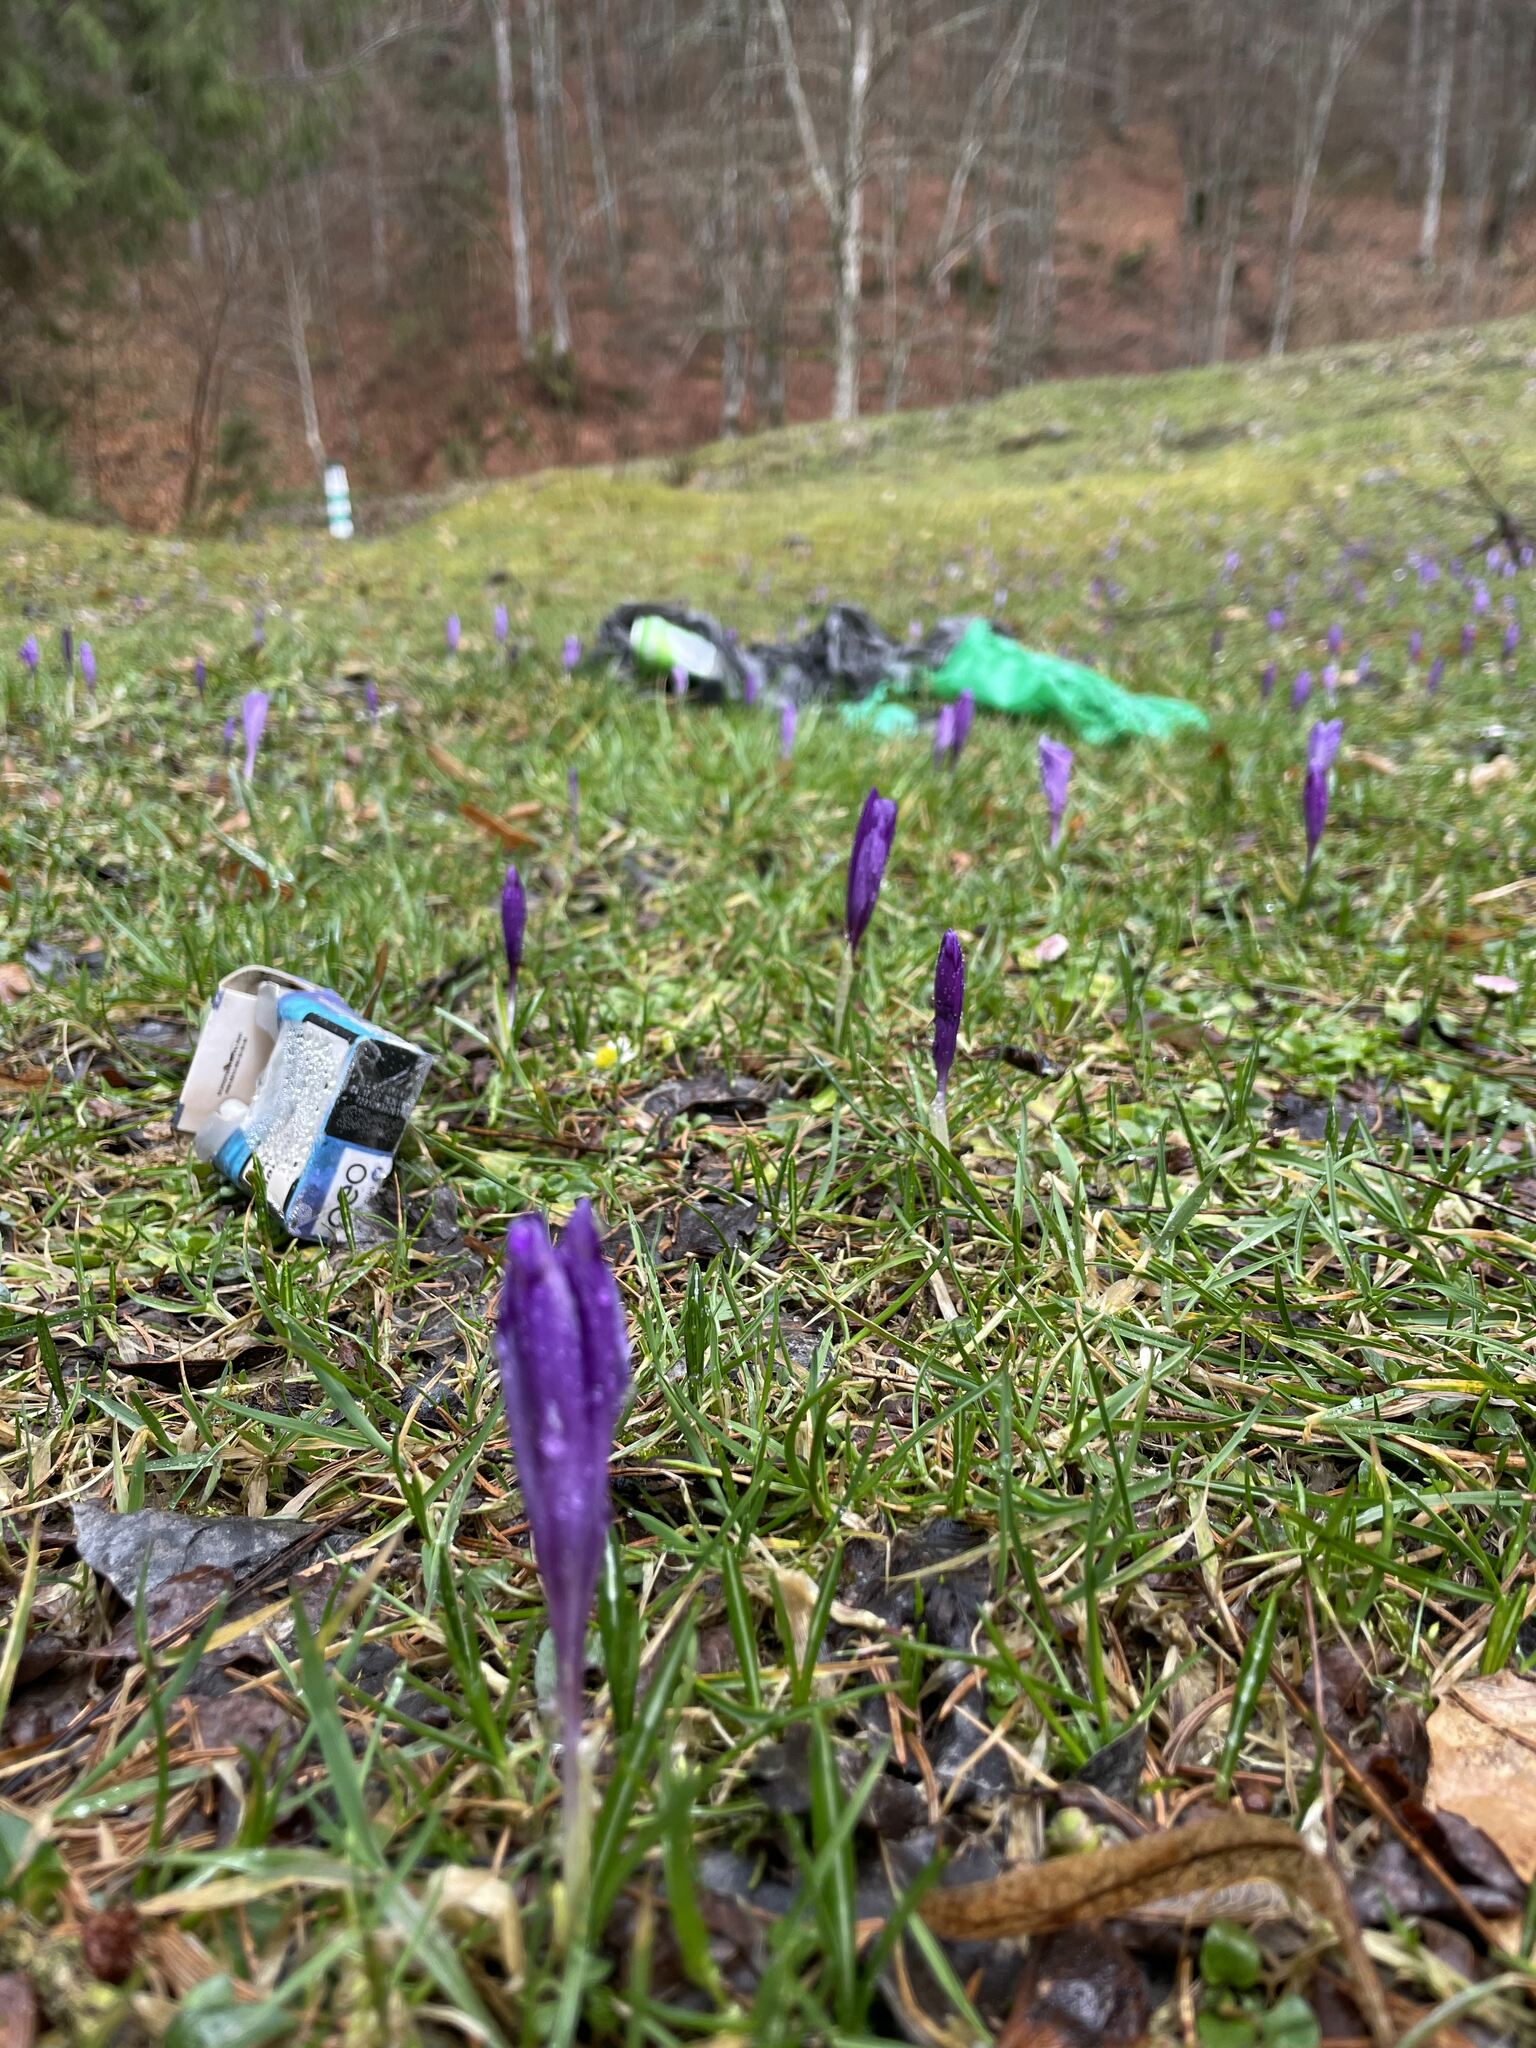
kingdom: Plantae
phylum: Tracheophyta
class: Liliopsida
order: Asparagales
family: Iridaceae
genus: Crocus
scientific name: Crocus heuffelianus
